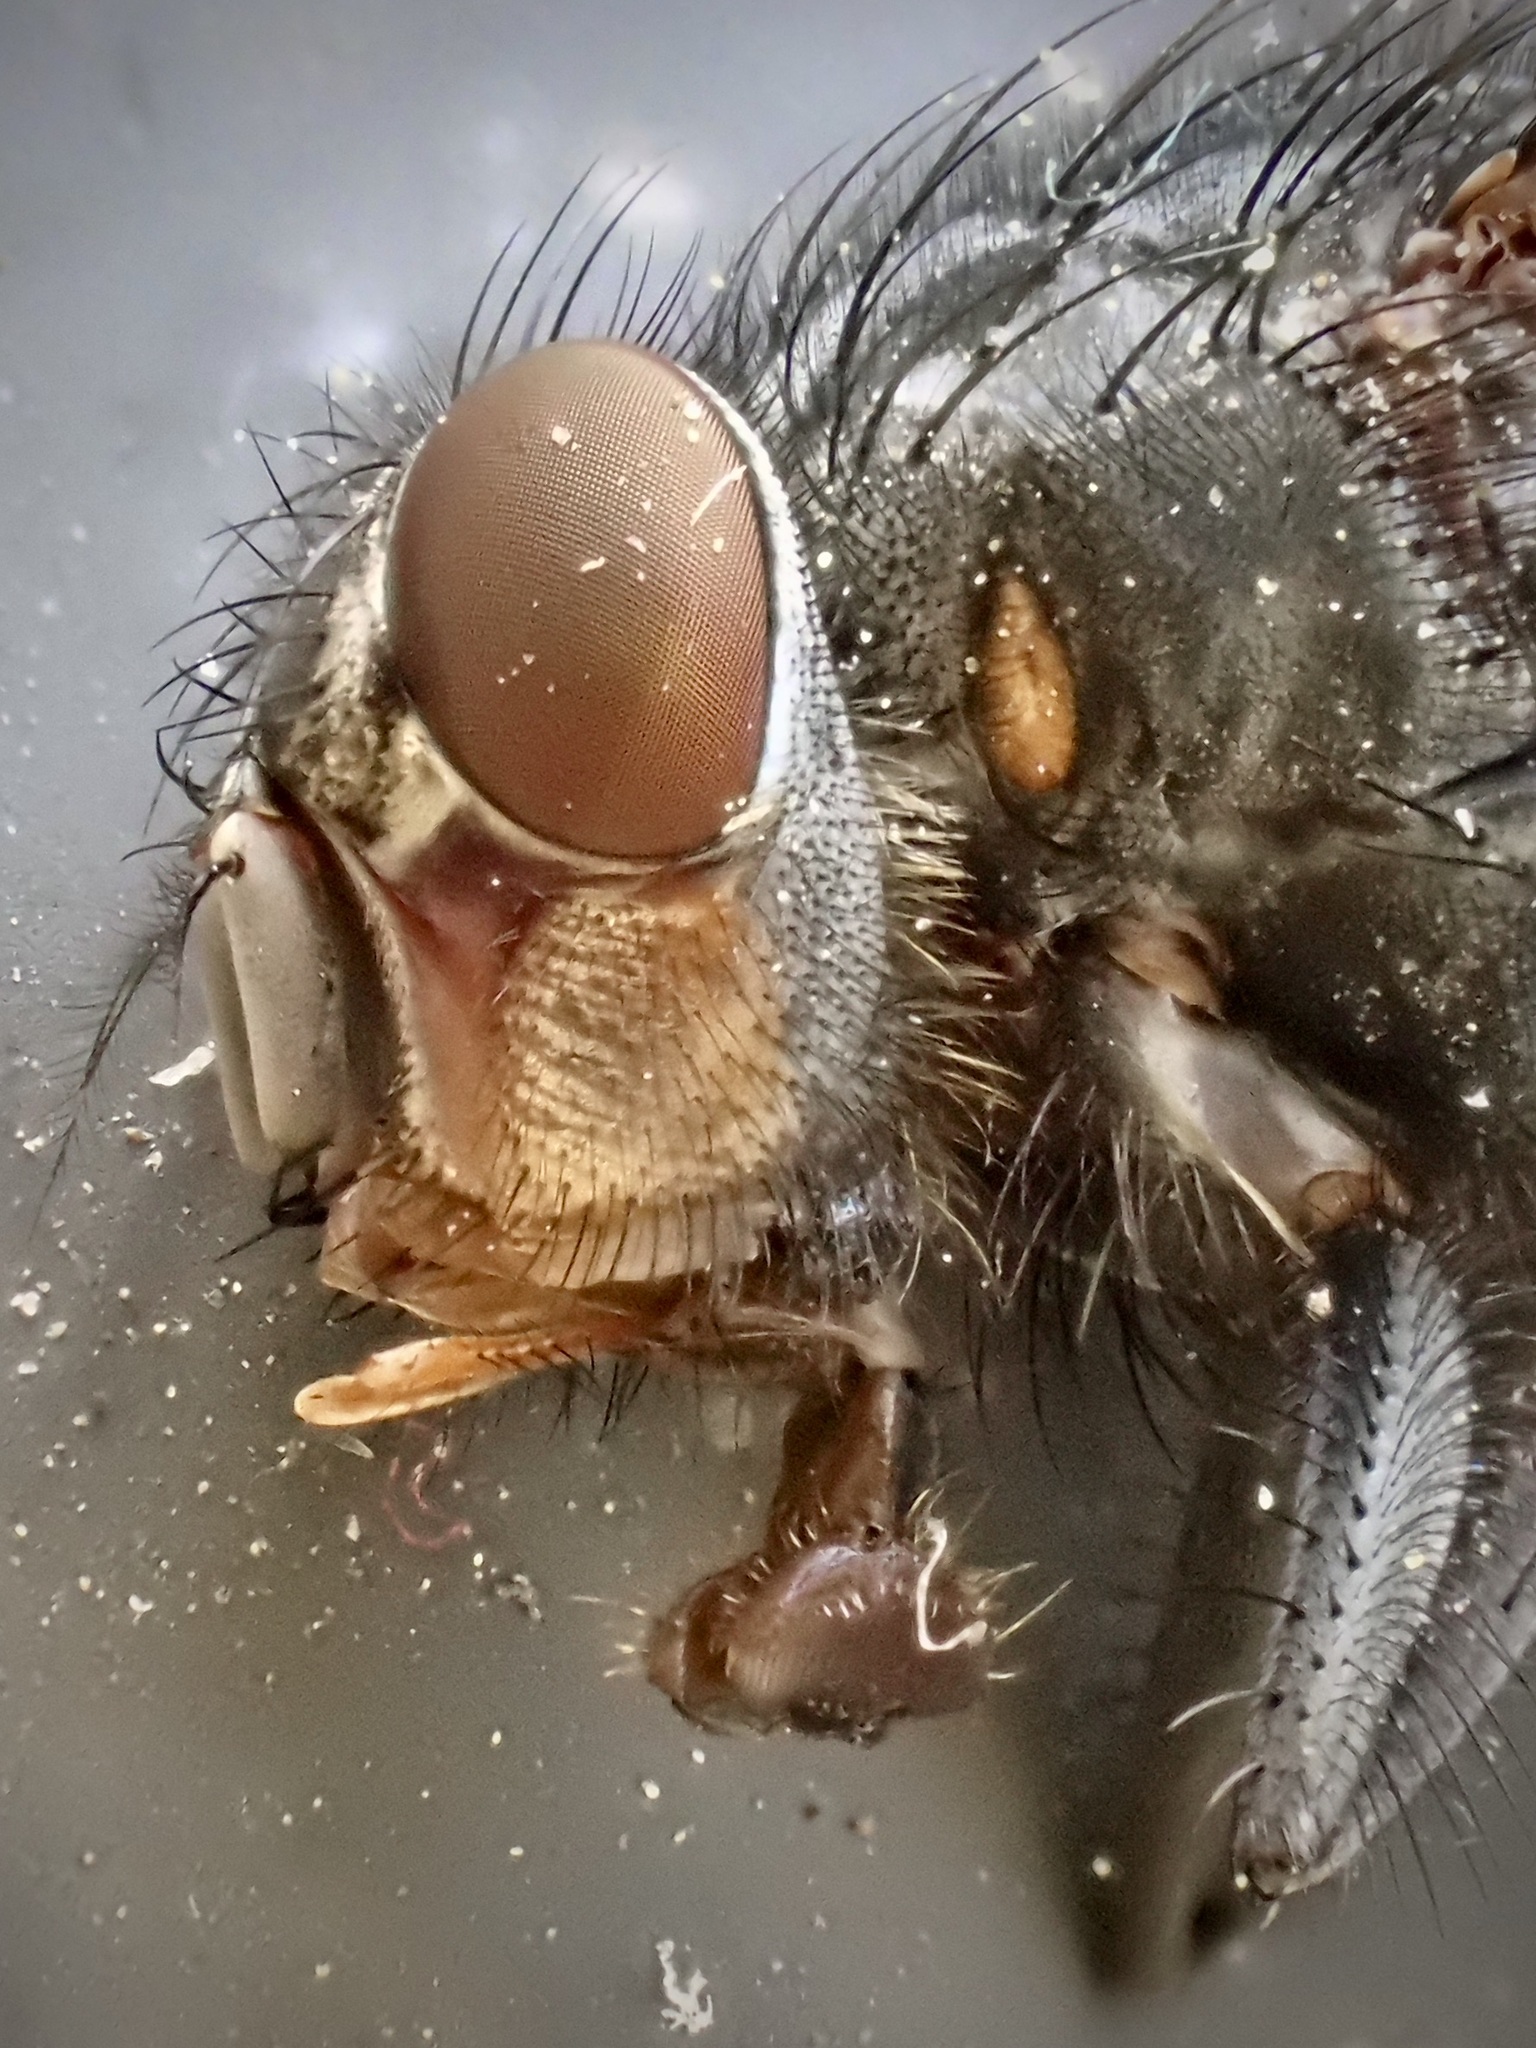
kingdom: Animalia
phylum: Arthropoda
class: Insecta
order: Diptera
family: Calliphoridae
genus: Calliphora
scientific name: Calliphora vicina
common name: Common blow flie
